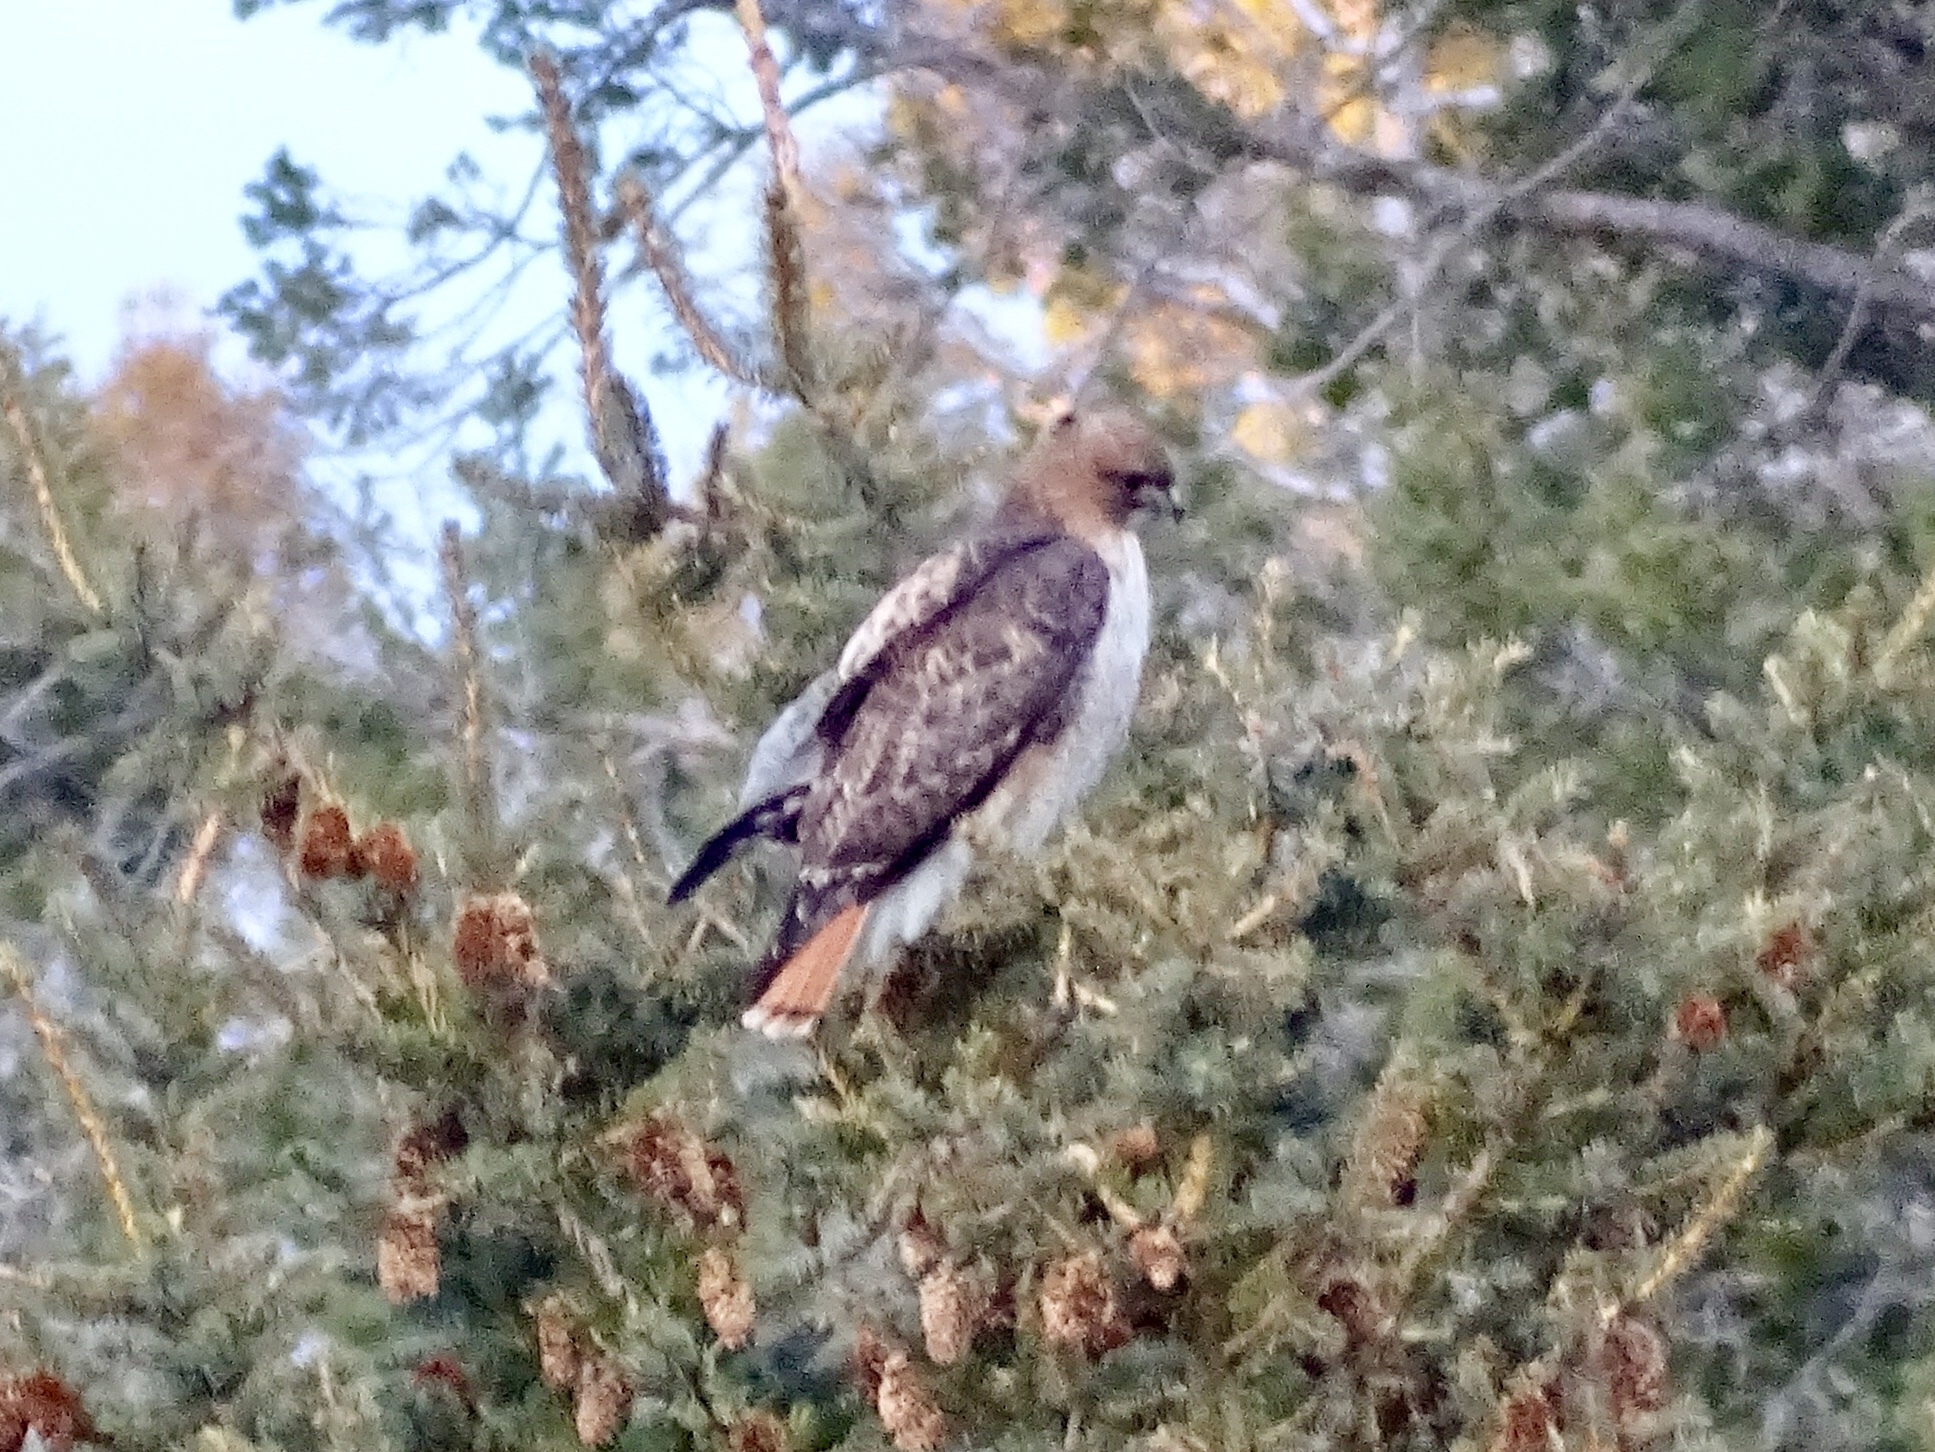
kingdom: Animalia
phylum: Chordata
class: Aves
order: Accipitriformes
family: Accipitridae
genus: Buteo
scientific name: Buteo jamaicensis
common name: Red-tailed hawk
